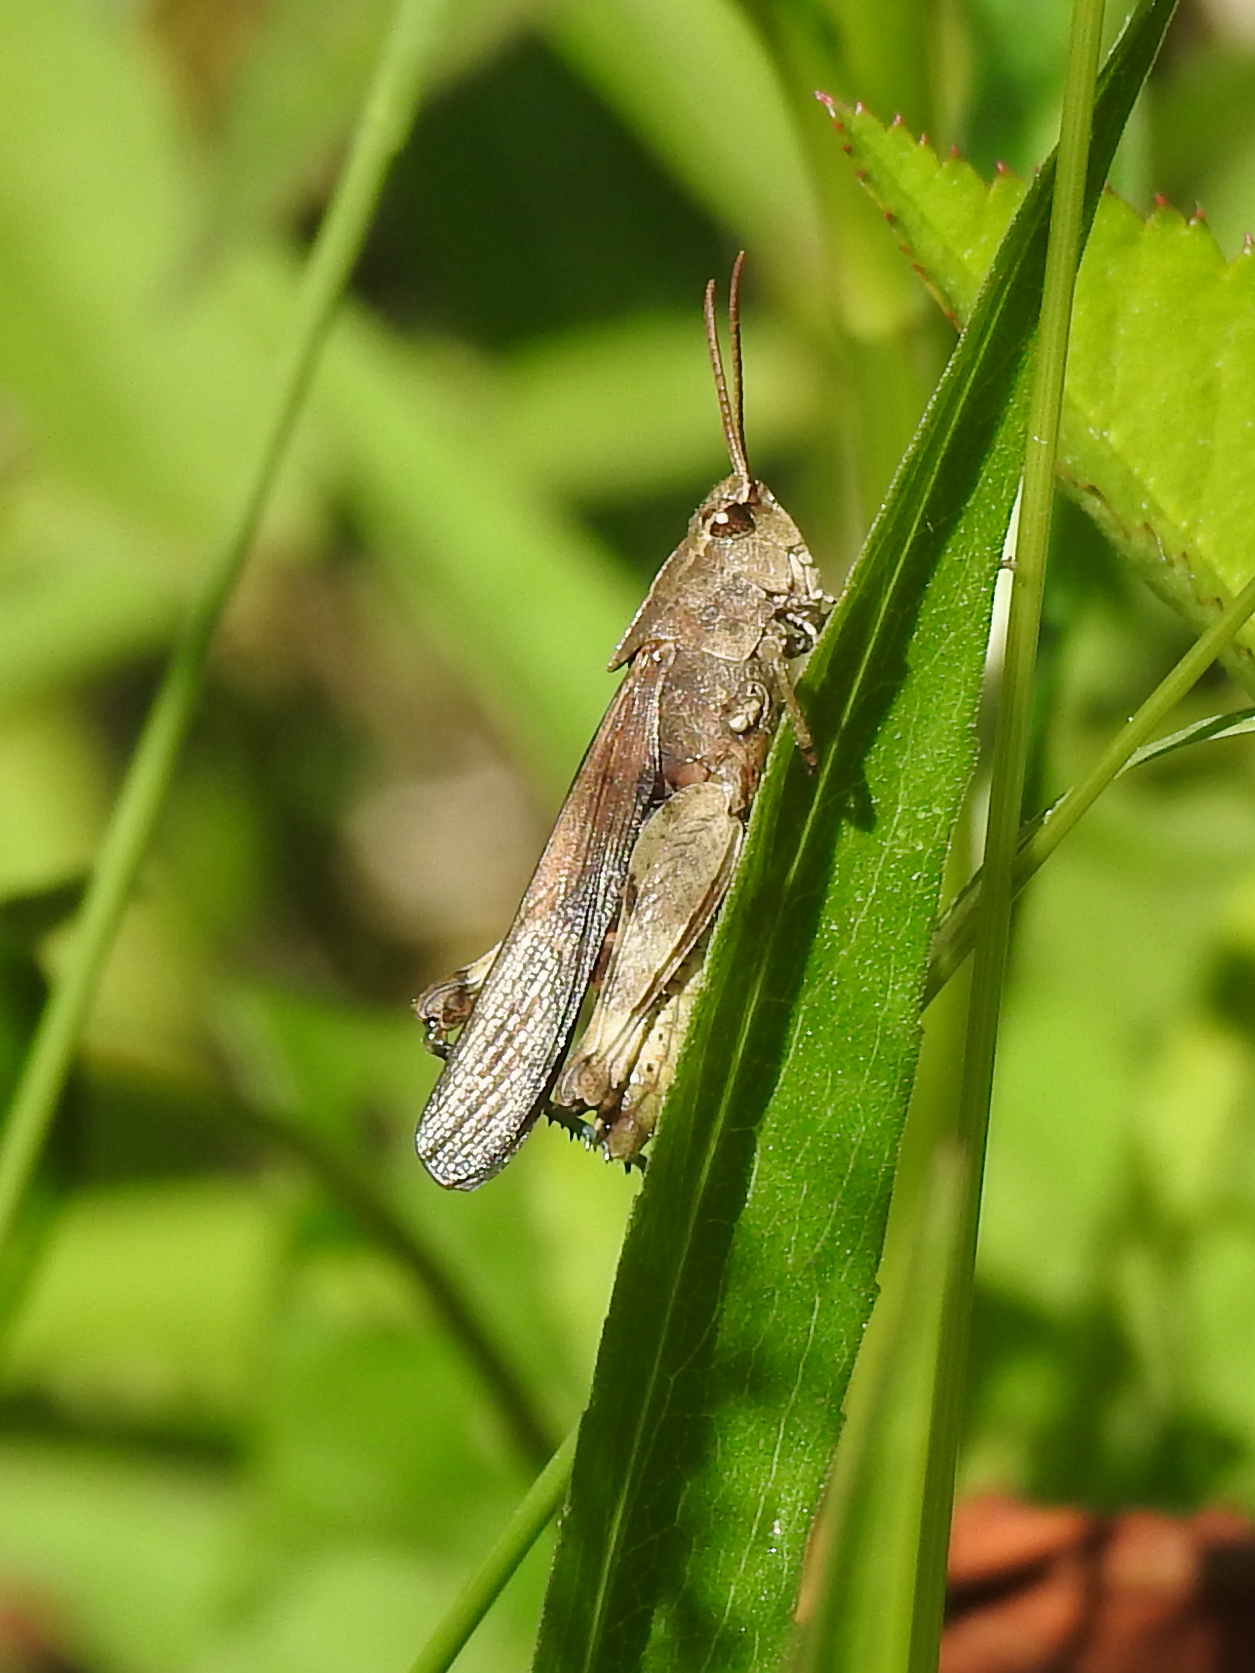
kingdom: Animalia
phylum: Arthropoda
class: Insecta
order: Orthoptera
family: Acrididae
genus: Chortophaga
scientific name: Chortophaga viridifasciata
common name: Green-striped grasshopper
